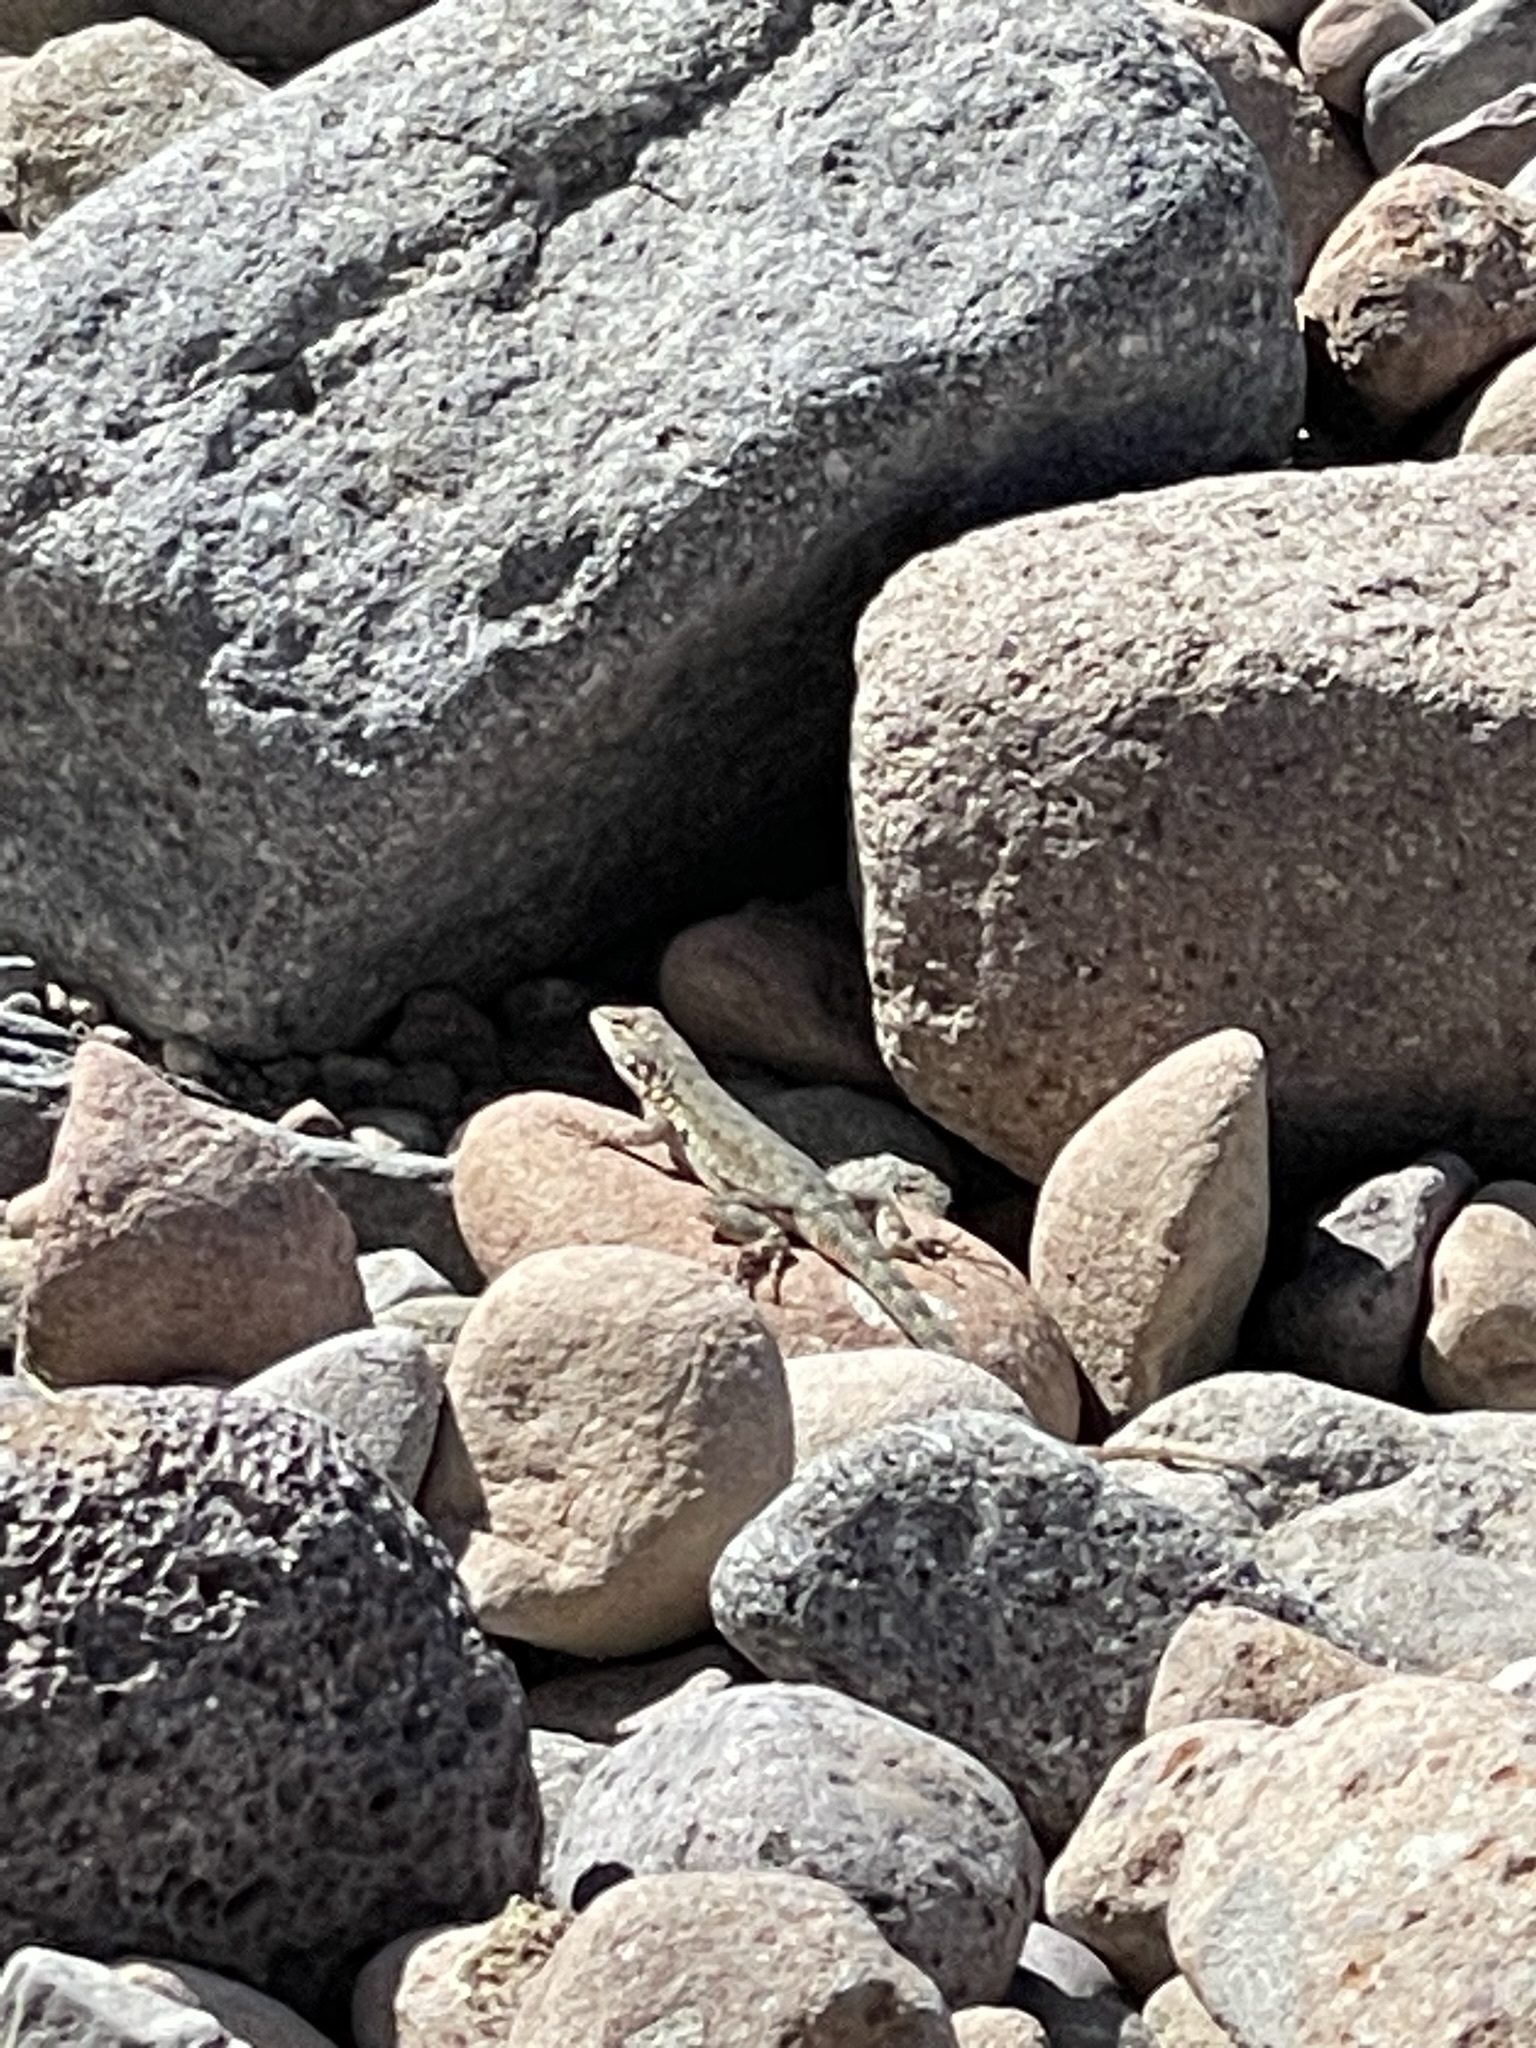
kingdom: Animalia
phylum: Chordata
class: Squamata
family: Phrynosomatidae
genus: Uta
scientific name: Uta stansburiana
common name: Side-blotched lizard
